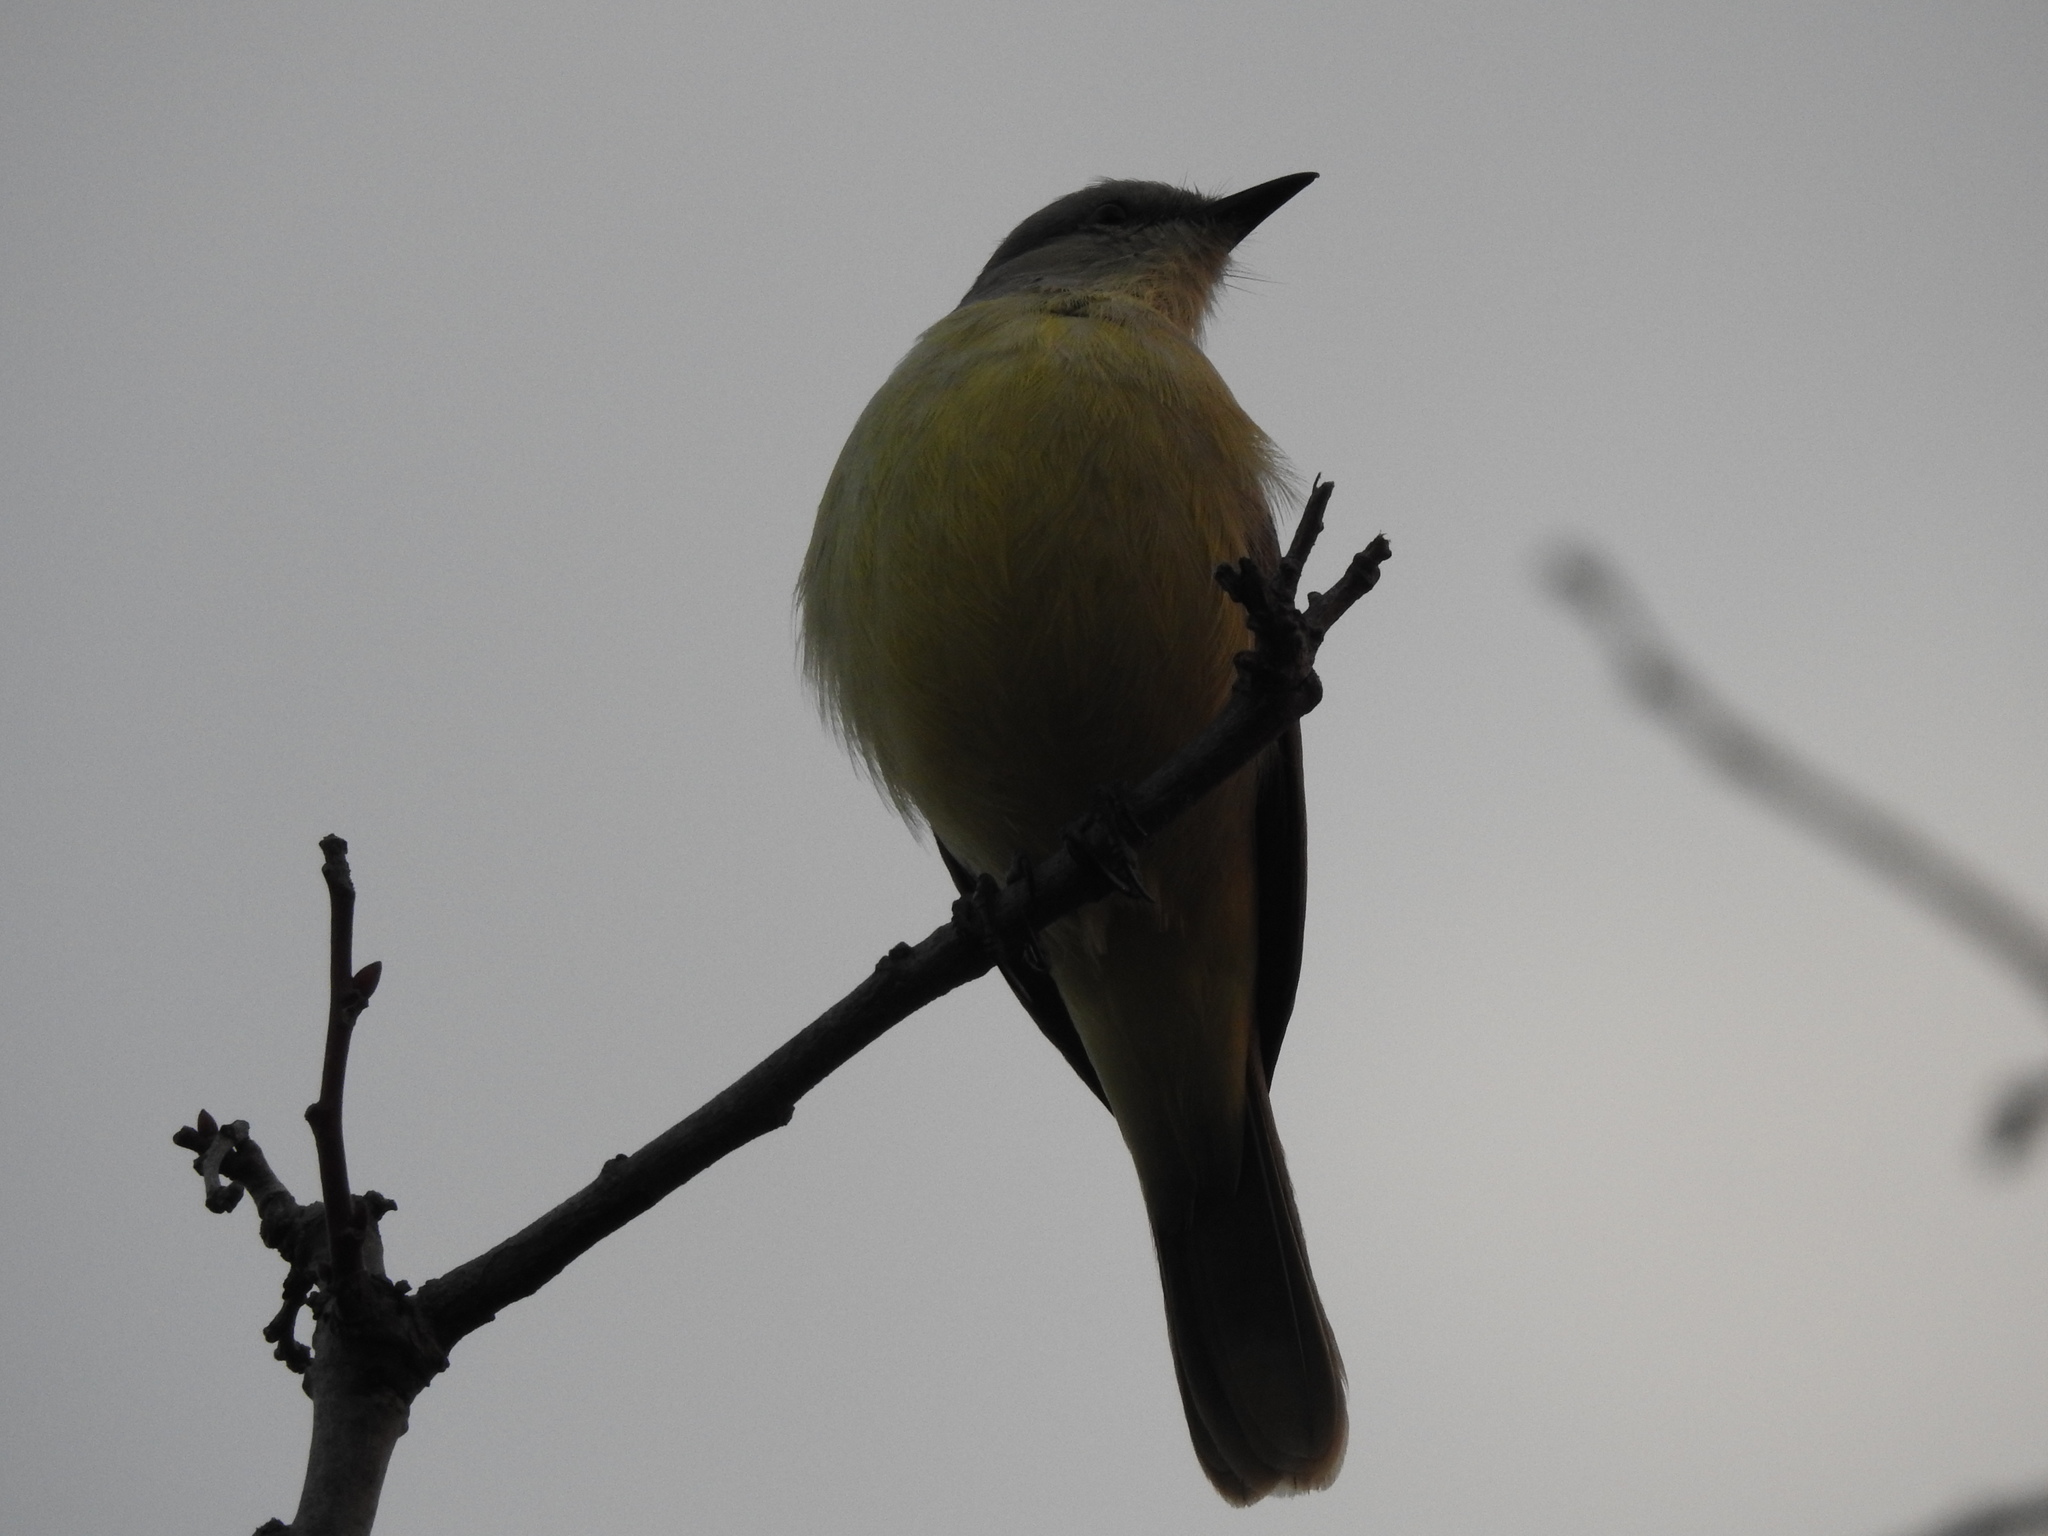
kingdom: Animalia
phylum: Chordata
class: Aves
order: Passeriformes
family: Tyrannidae
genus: Machetornis
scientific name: Machetornis rixosa
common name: Cattle tyrant
